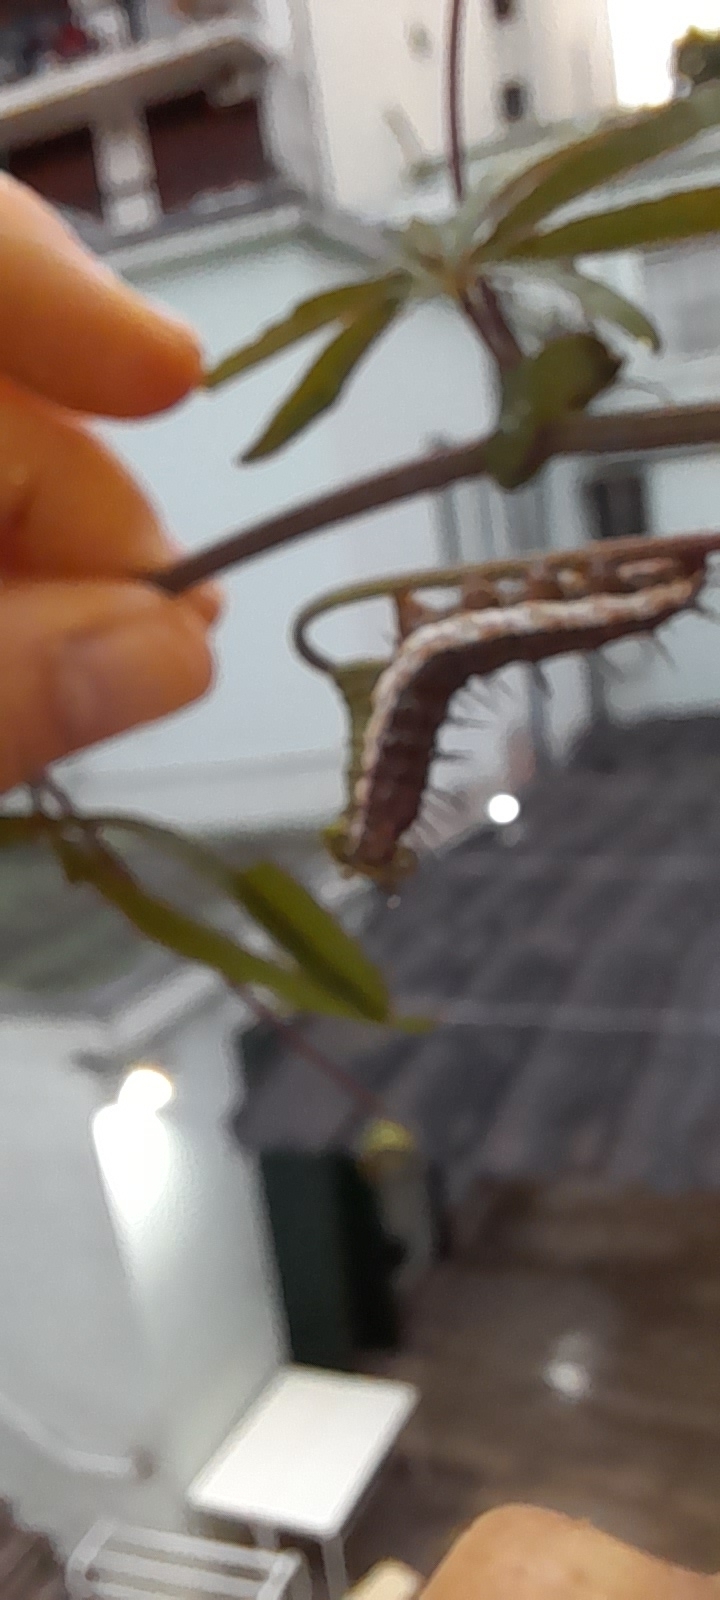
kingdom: Animalia
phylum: Arthropoda
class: Insecta
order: Lepidoptera
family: Nymphalidae
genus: Dione
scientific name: Dione vanillae
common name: Gulf fritillary
